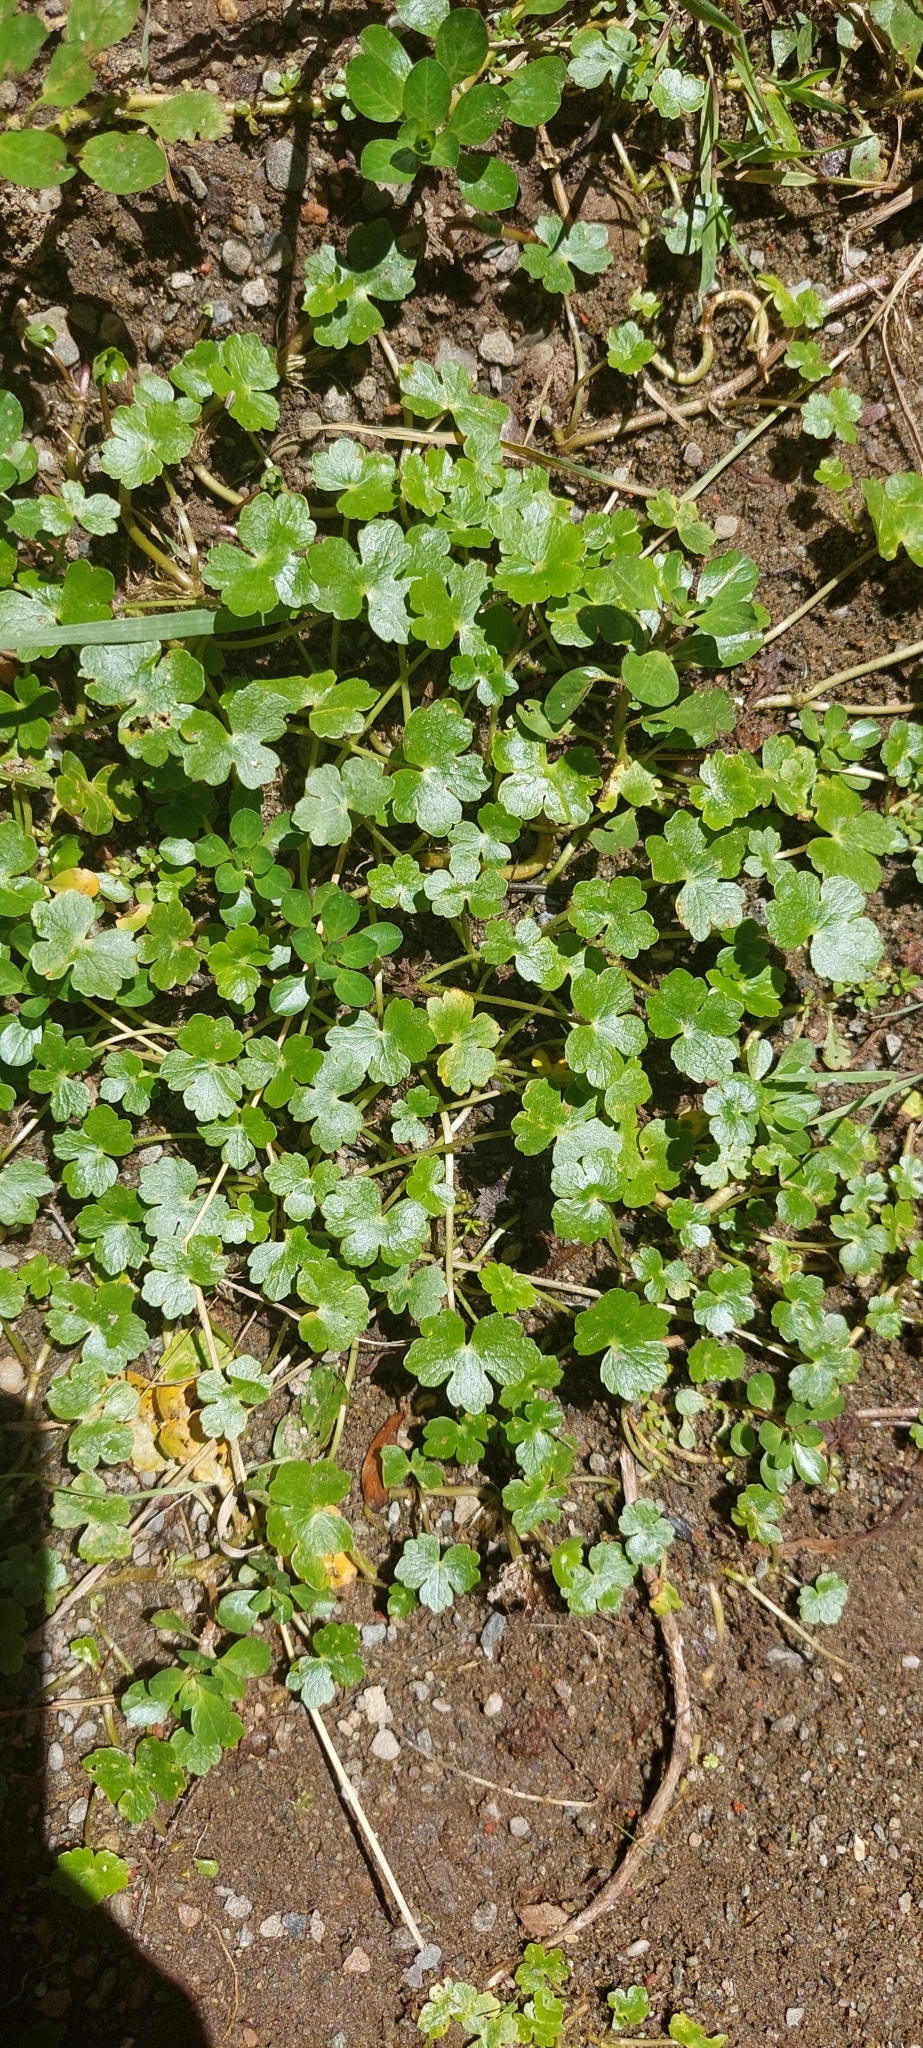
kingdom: Plantae
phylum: Tracheophyta
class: Magnoliopsida
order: Apiales
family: Araliaceae
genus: Hydrocotyle
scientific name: Hydrocotyle ranunculoides
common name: Floating pennywort
